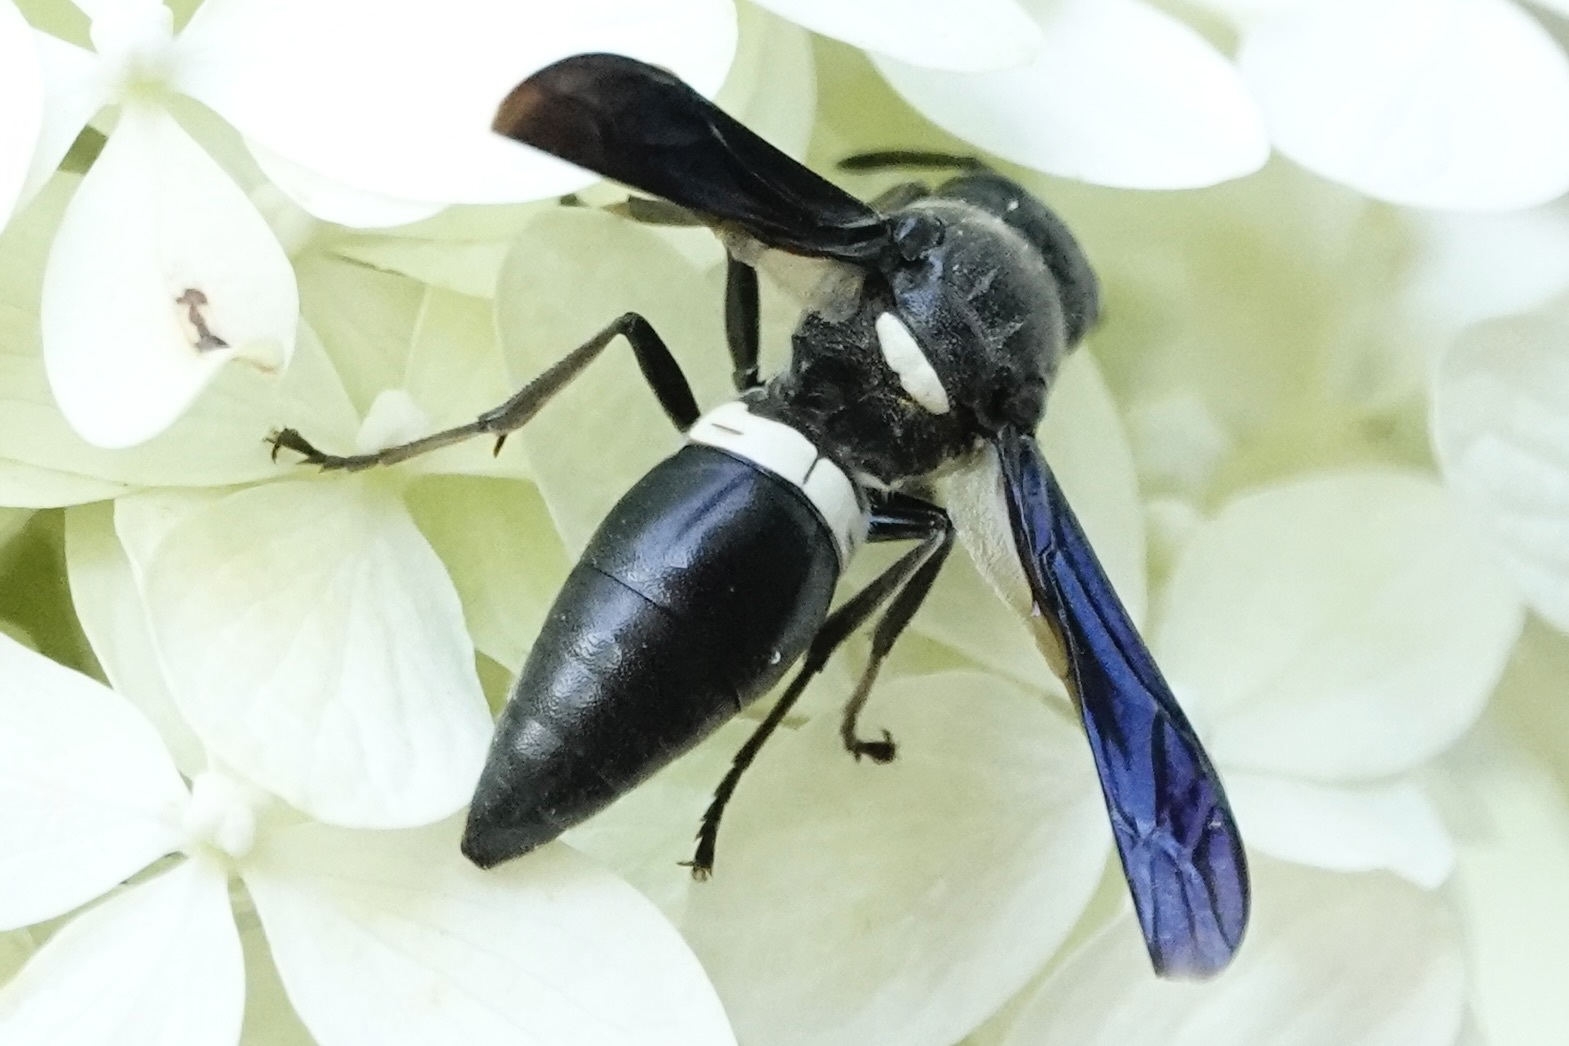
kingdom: Animalia
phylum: Arthropoda
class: Insecta
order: Hymenoptera
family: Eumenidae
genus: Monobia
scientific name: Monobia quadridens
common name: Four-toothed mason wasp
